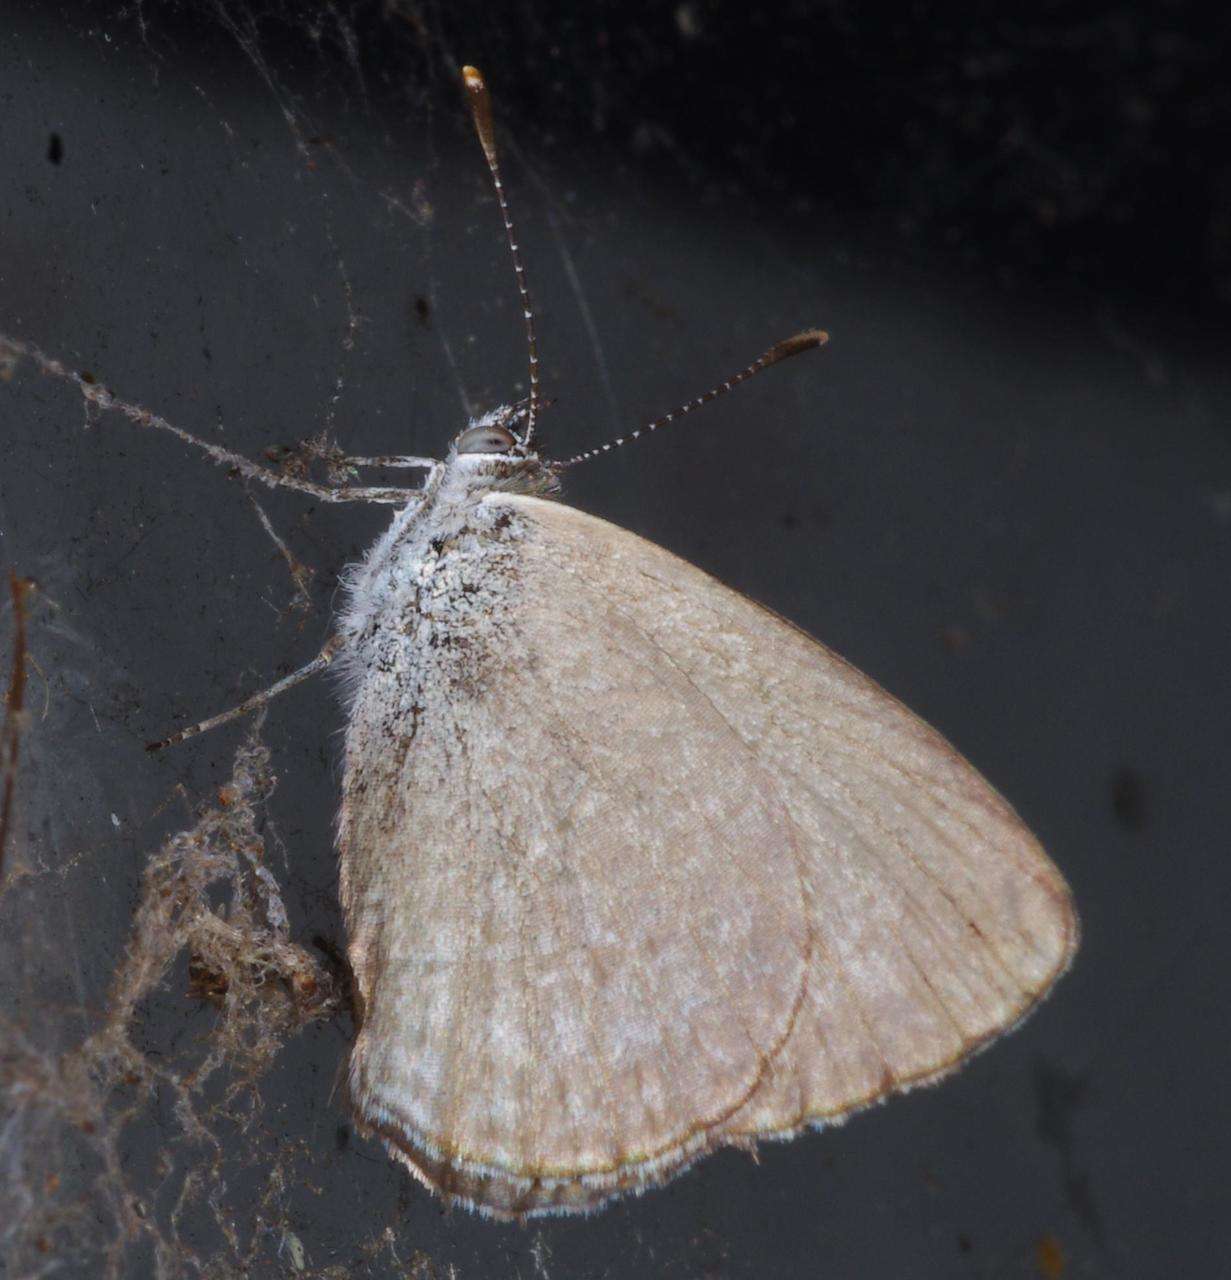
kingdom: Animalia
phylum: Arthropoda
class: Insecta
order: Lepidoptera
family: Lycaenidae
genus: Zizina
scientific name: Zizina labradus
